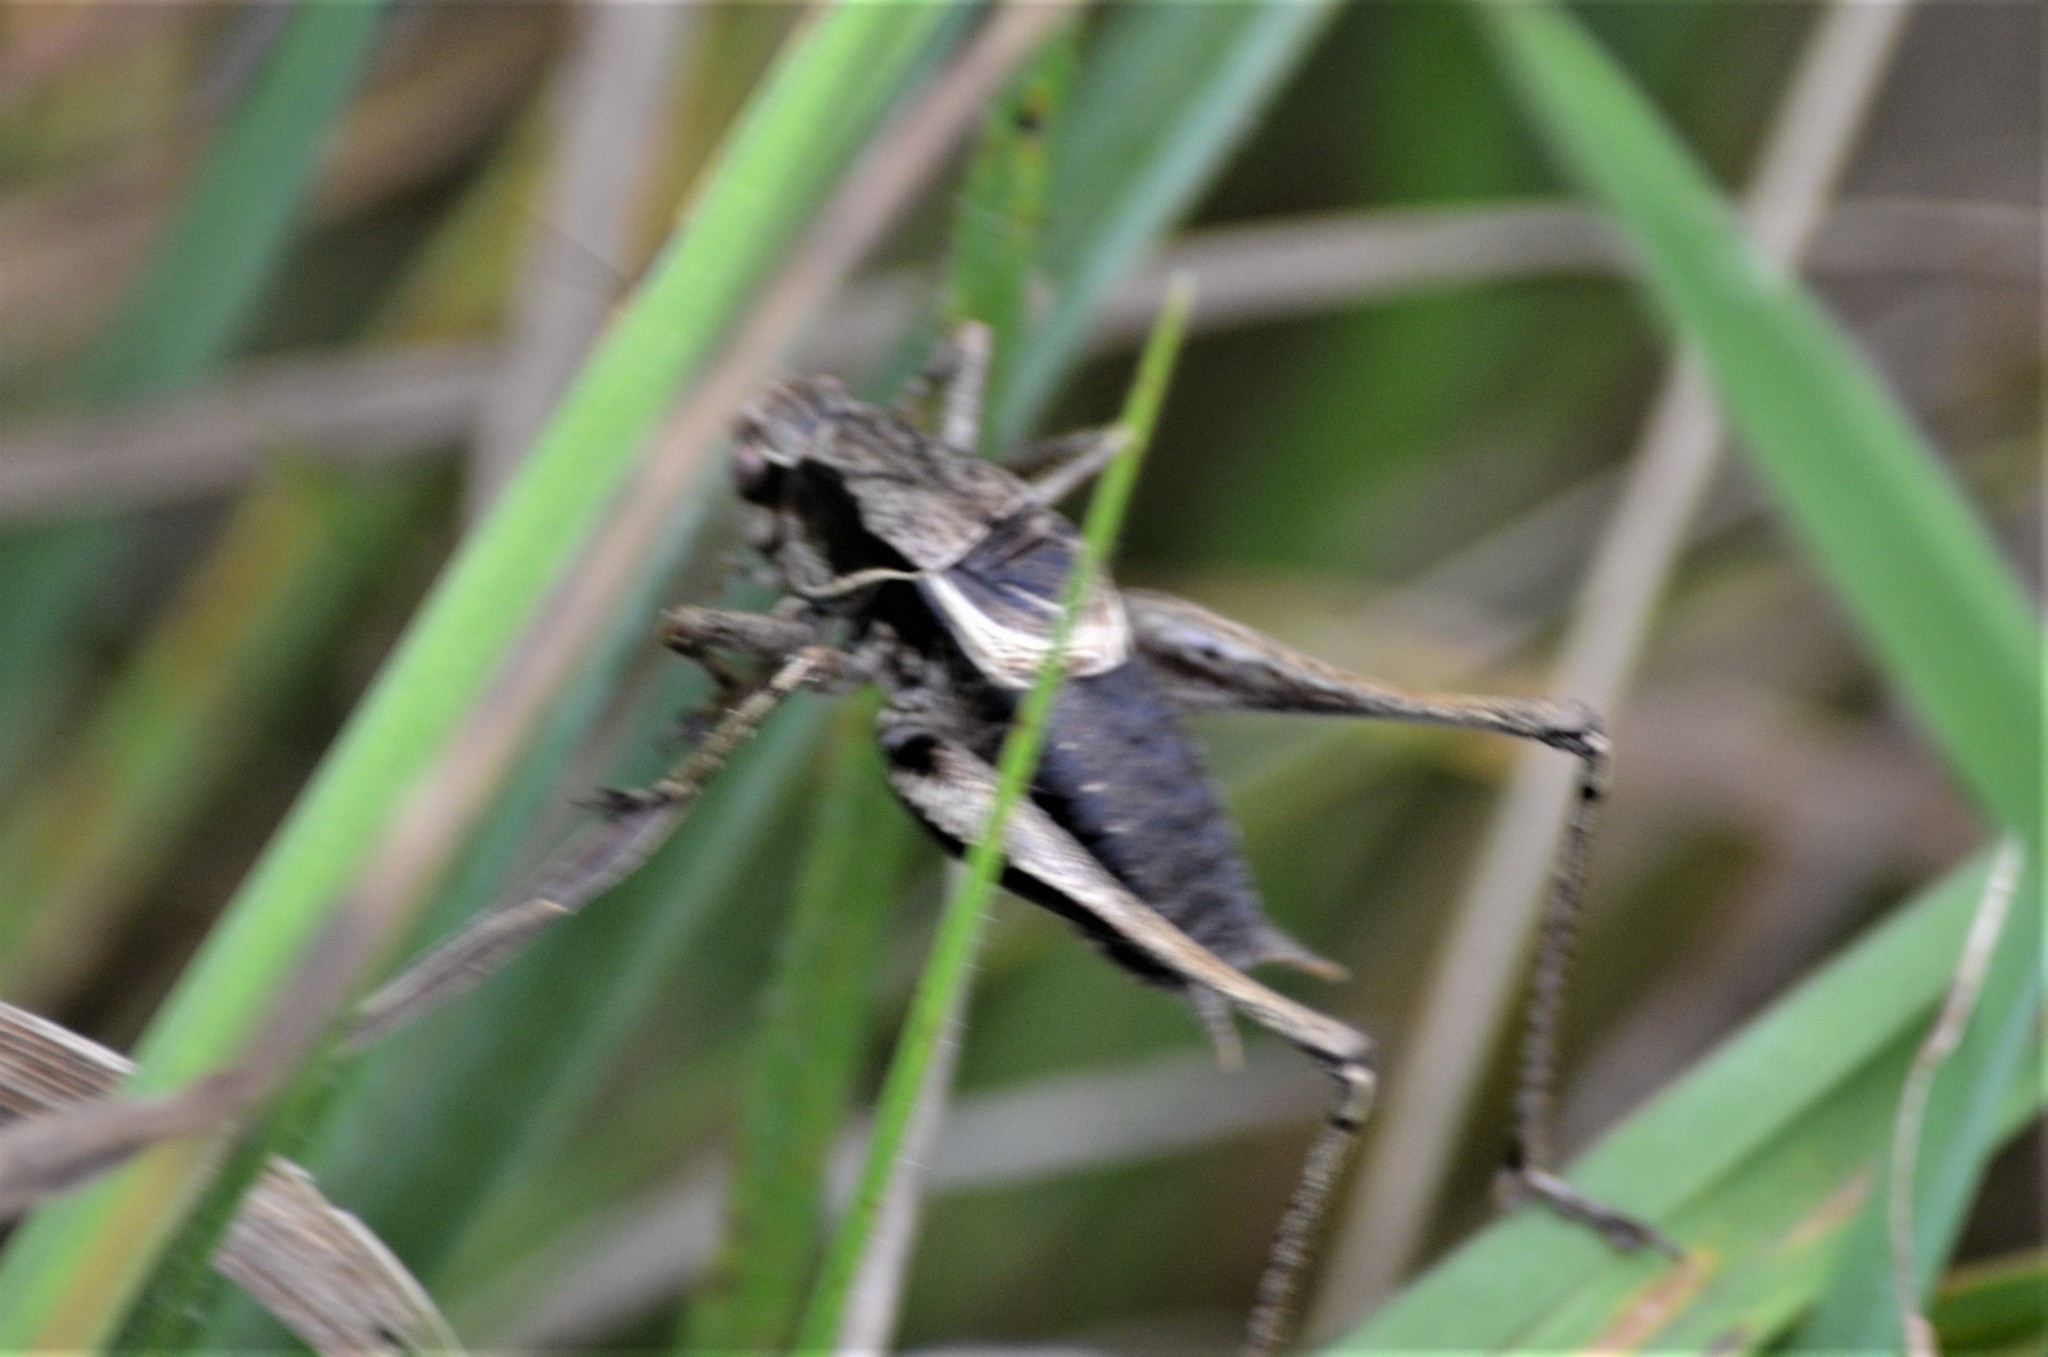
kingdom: Animalia
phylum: Arthropoda
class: Insecta
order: Orthoptera
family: Tettigoniidae
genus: Pholidoptera
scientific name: Pholidoptera griseoaptera
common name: Dark bush-cricket
